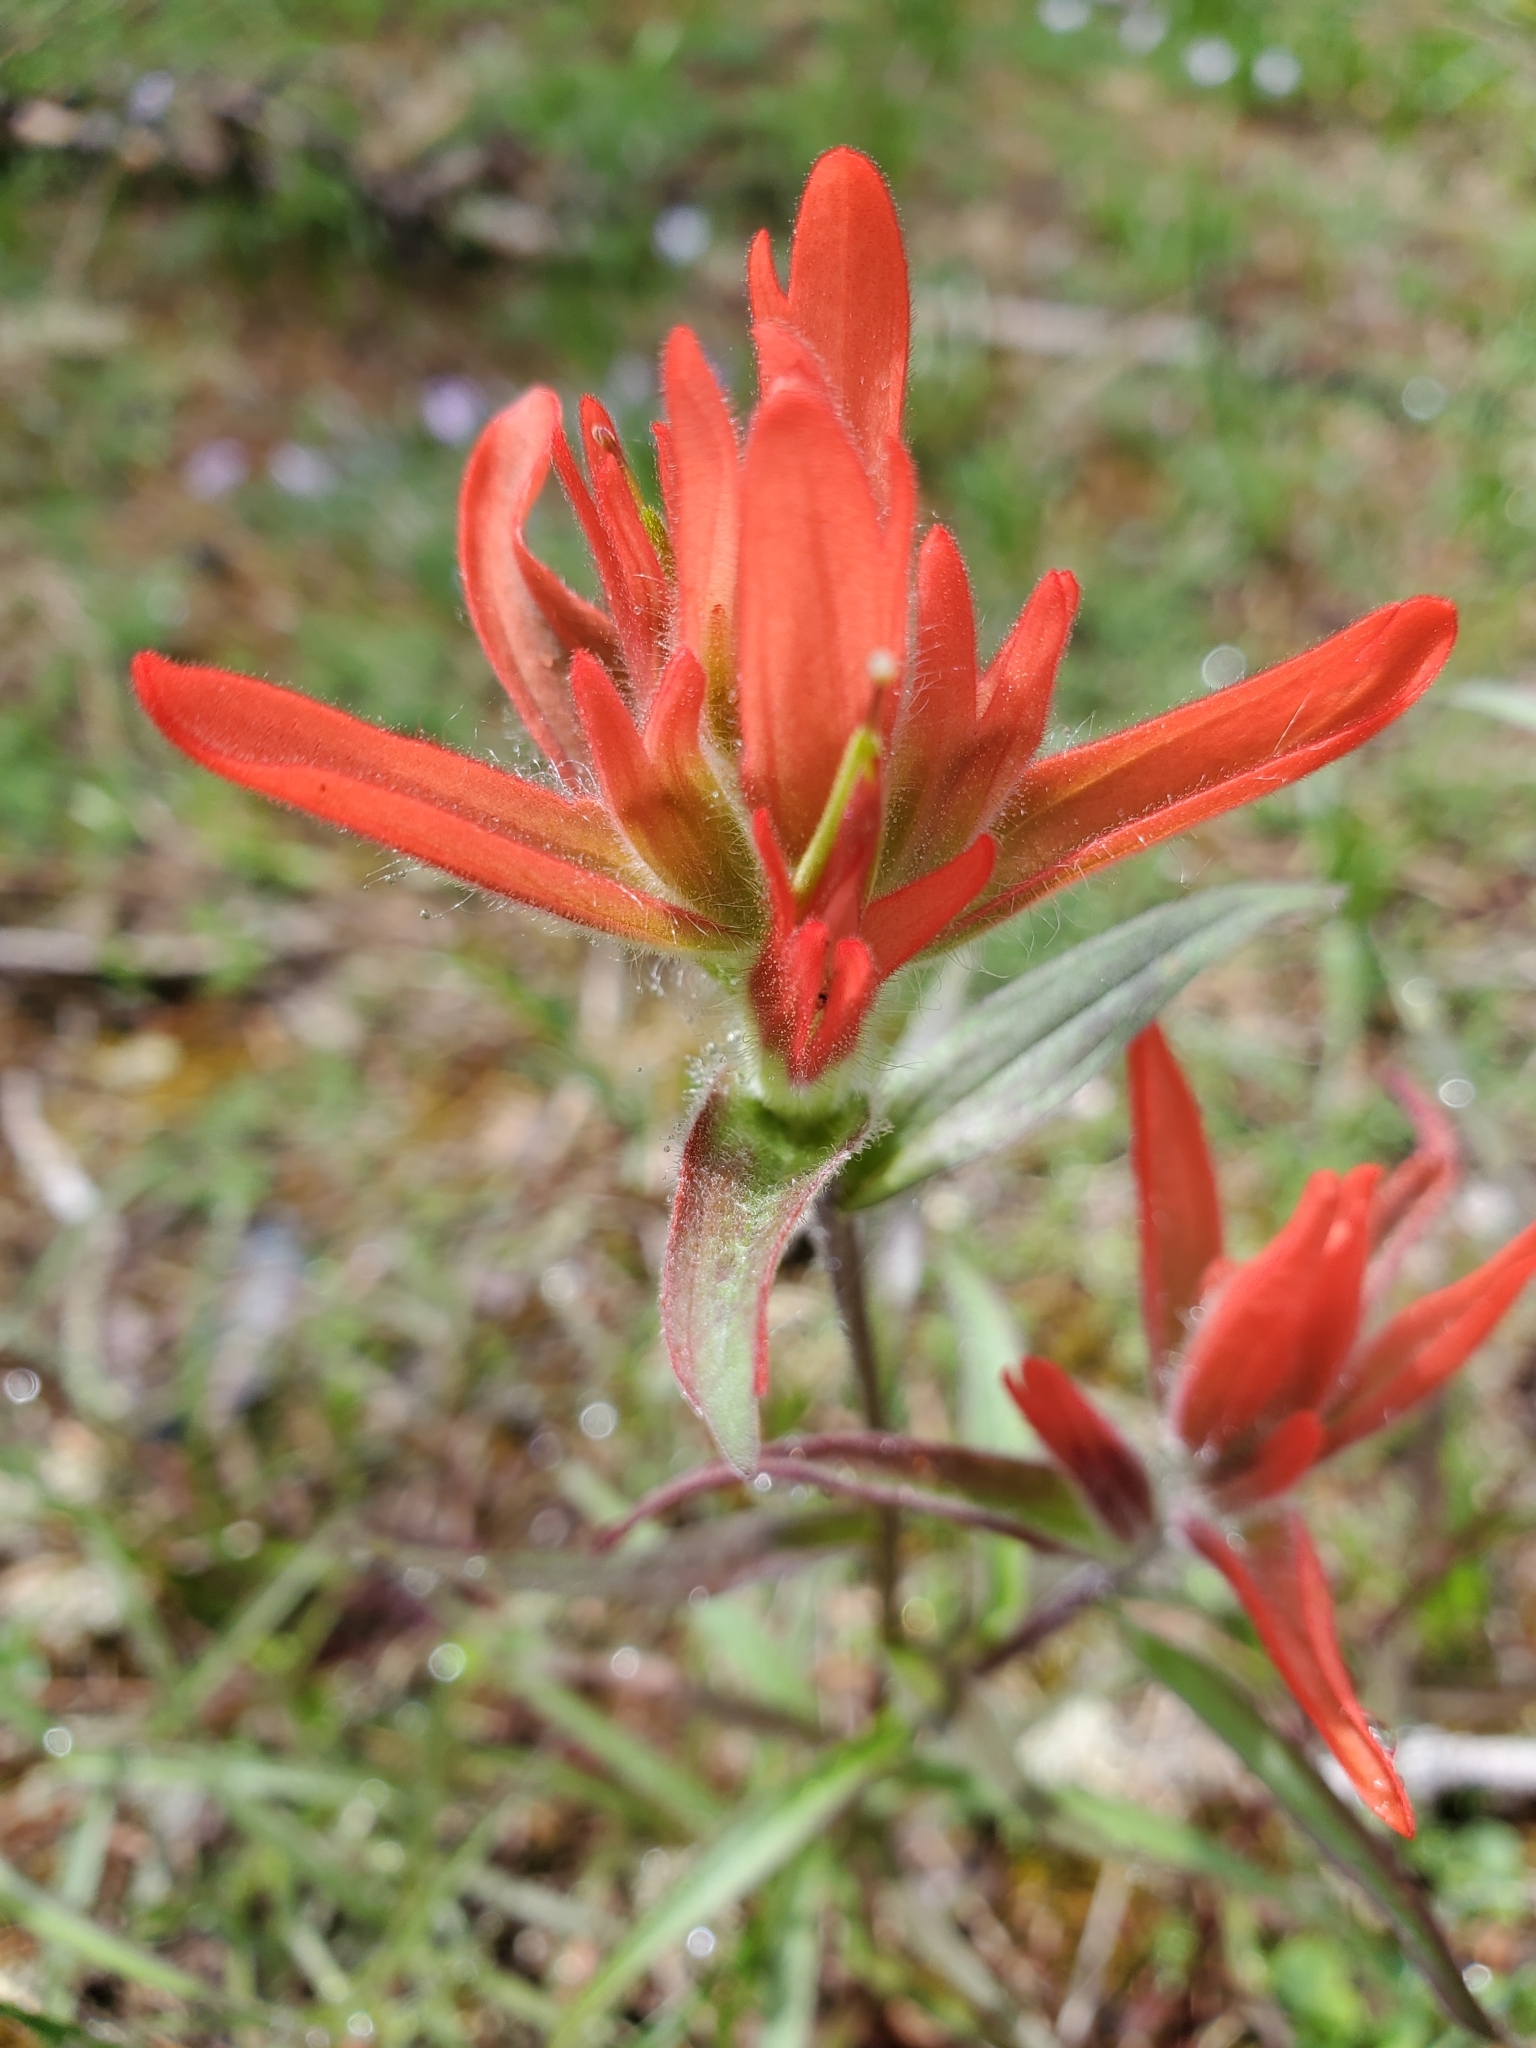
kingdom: Plantae
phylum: Tracheophyta
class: Magnoliopsida
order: Lamiales
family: Orobanchaceae
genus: Castilleja
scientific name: Castilleja miniata
